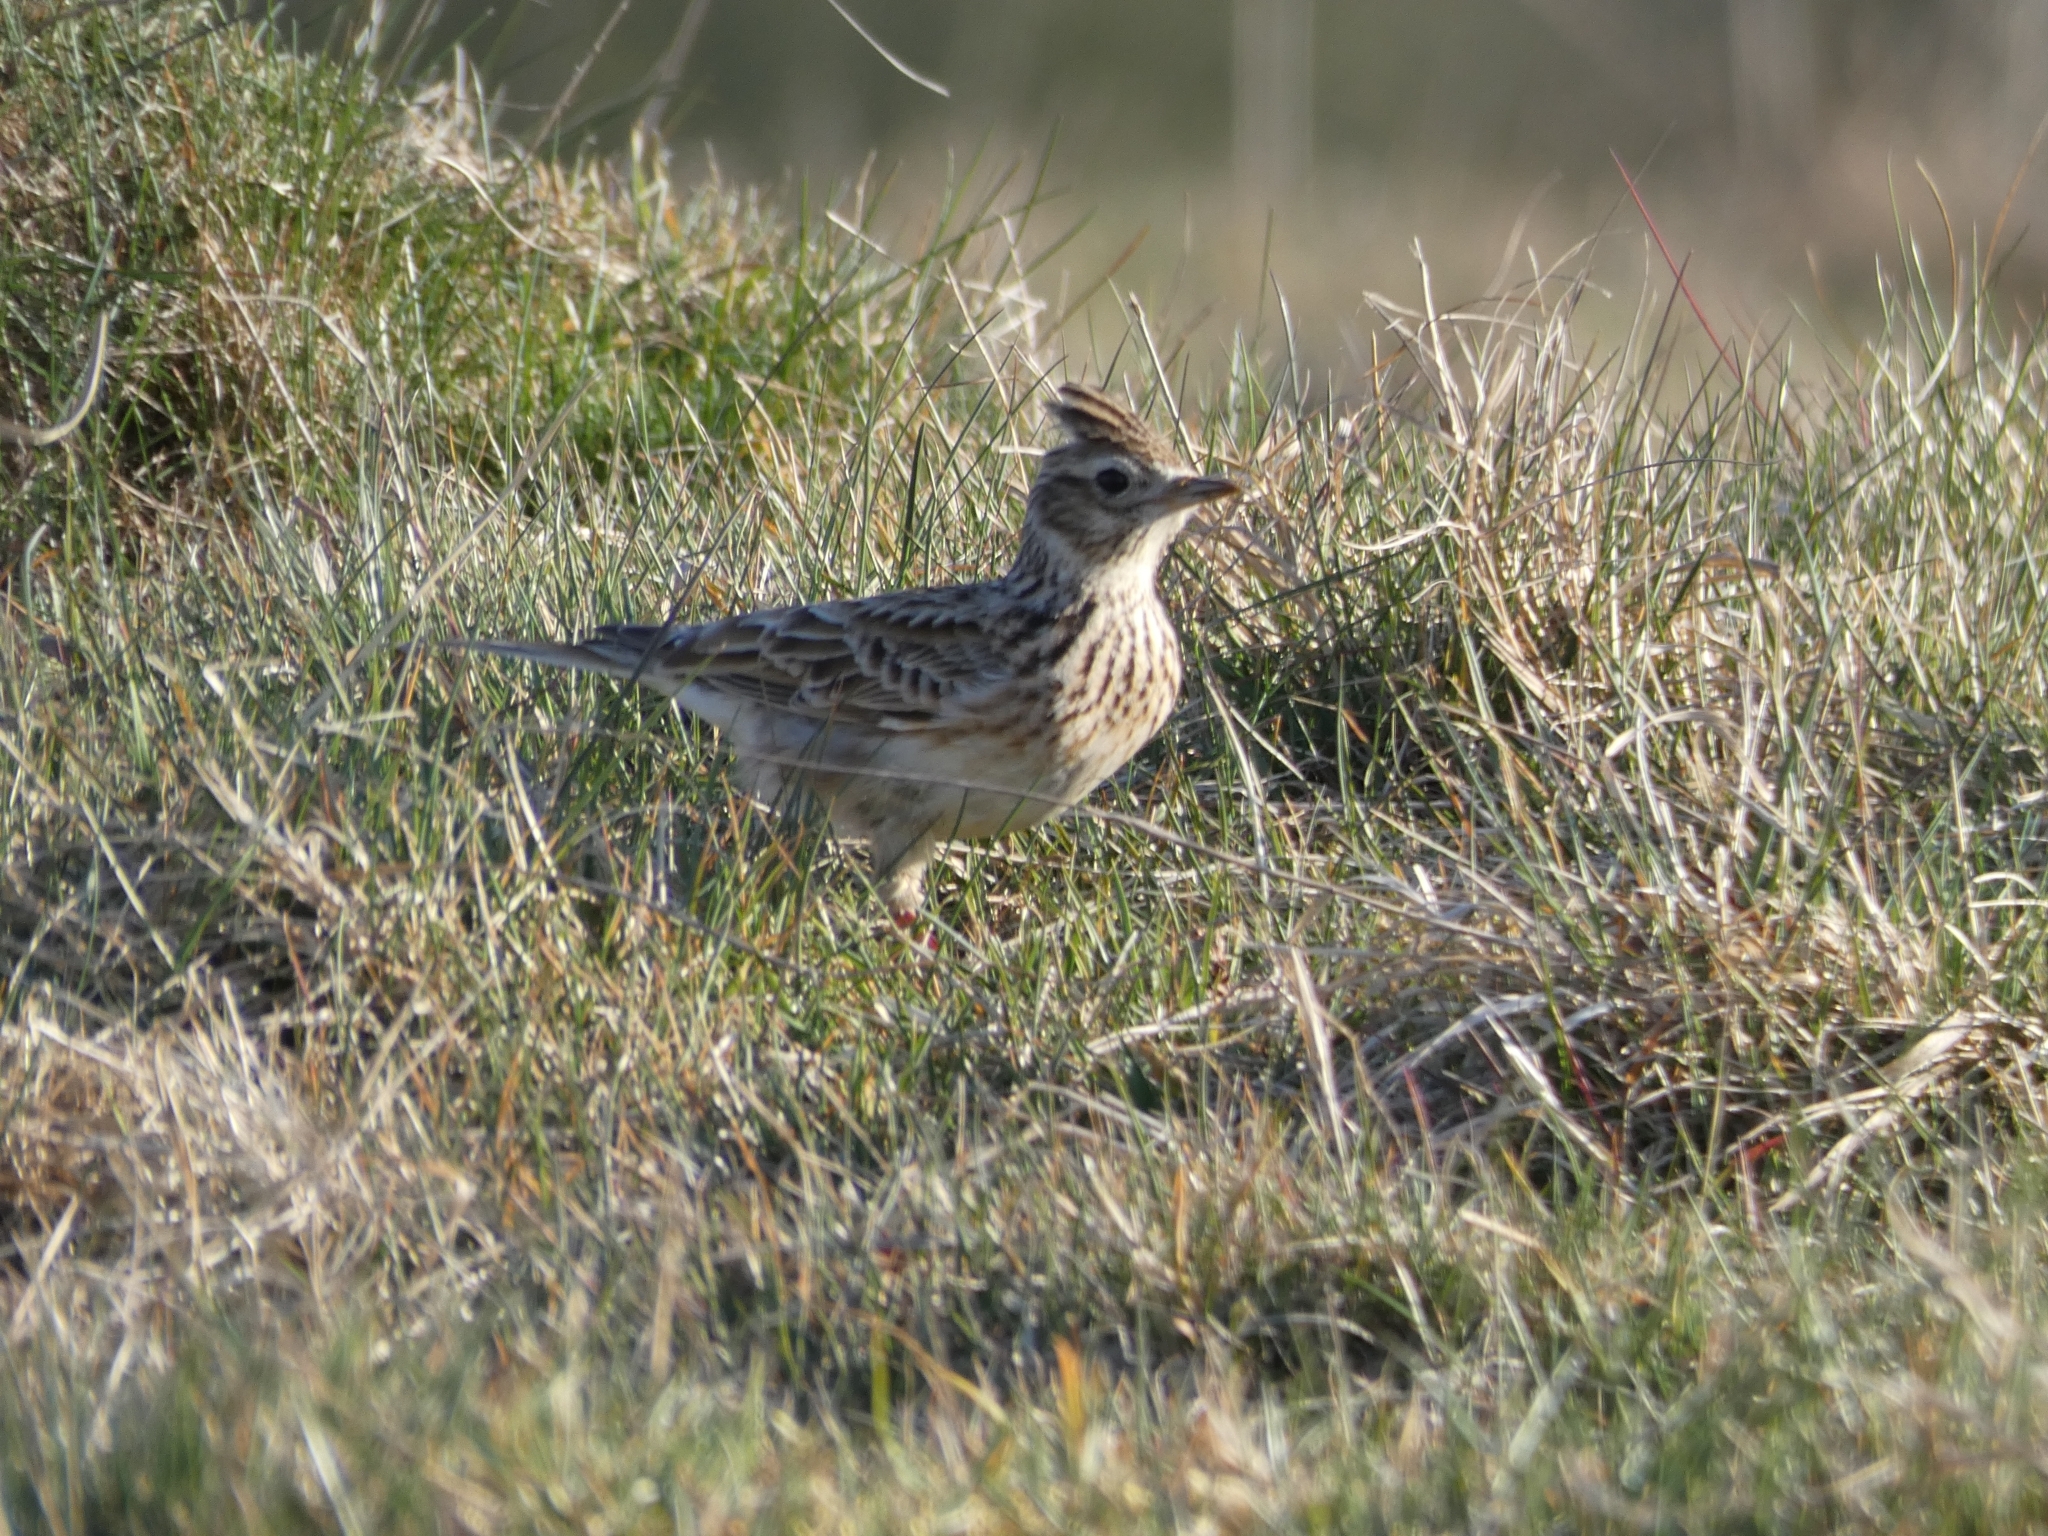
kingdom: Animalia
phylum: Chordata
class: Aves
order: Passeriformes
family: Alaudidae
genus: Alauda
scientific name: Alauda arvensis
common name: Eurasian skylark
